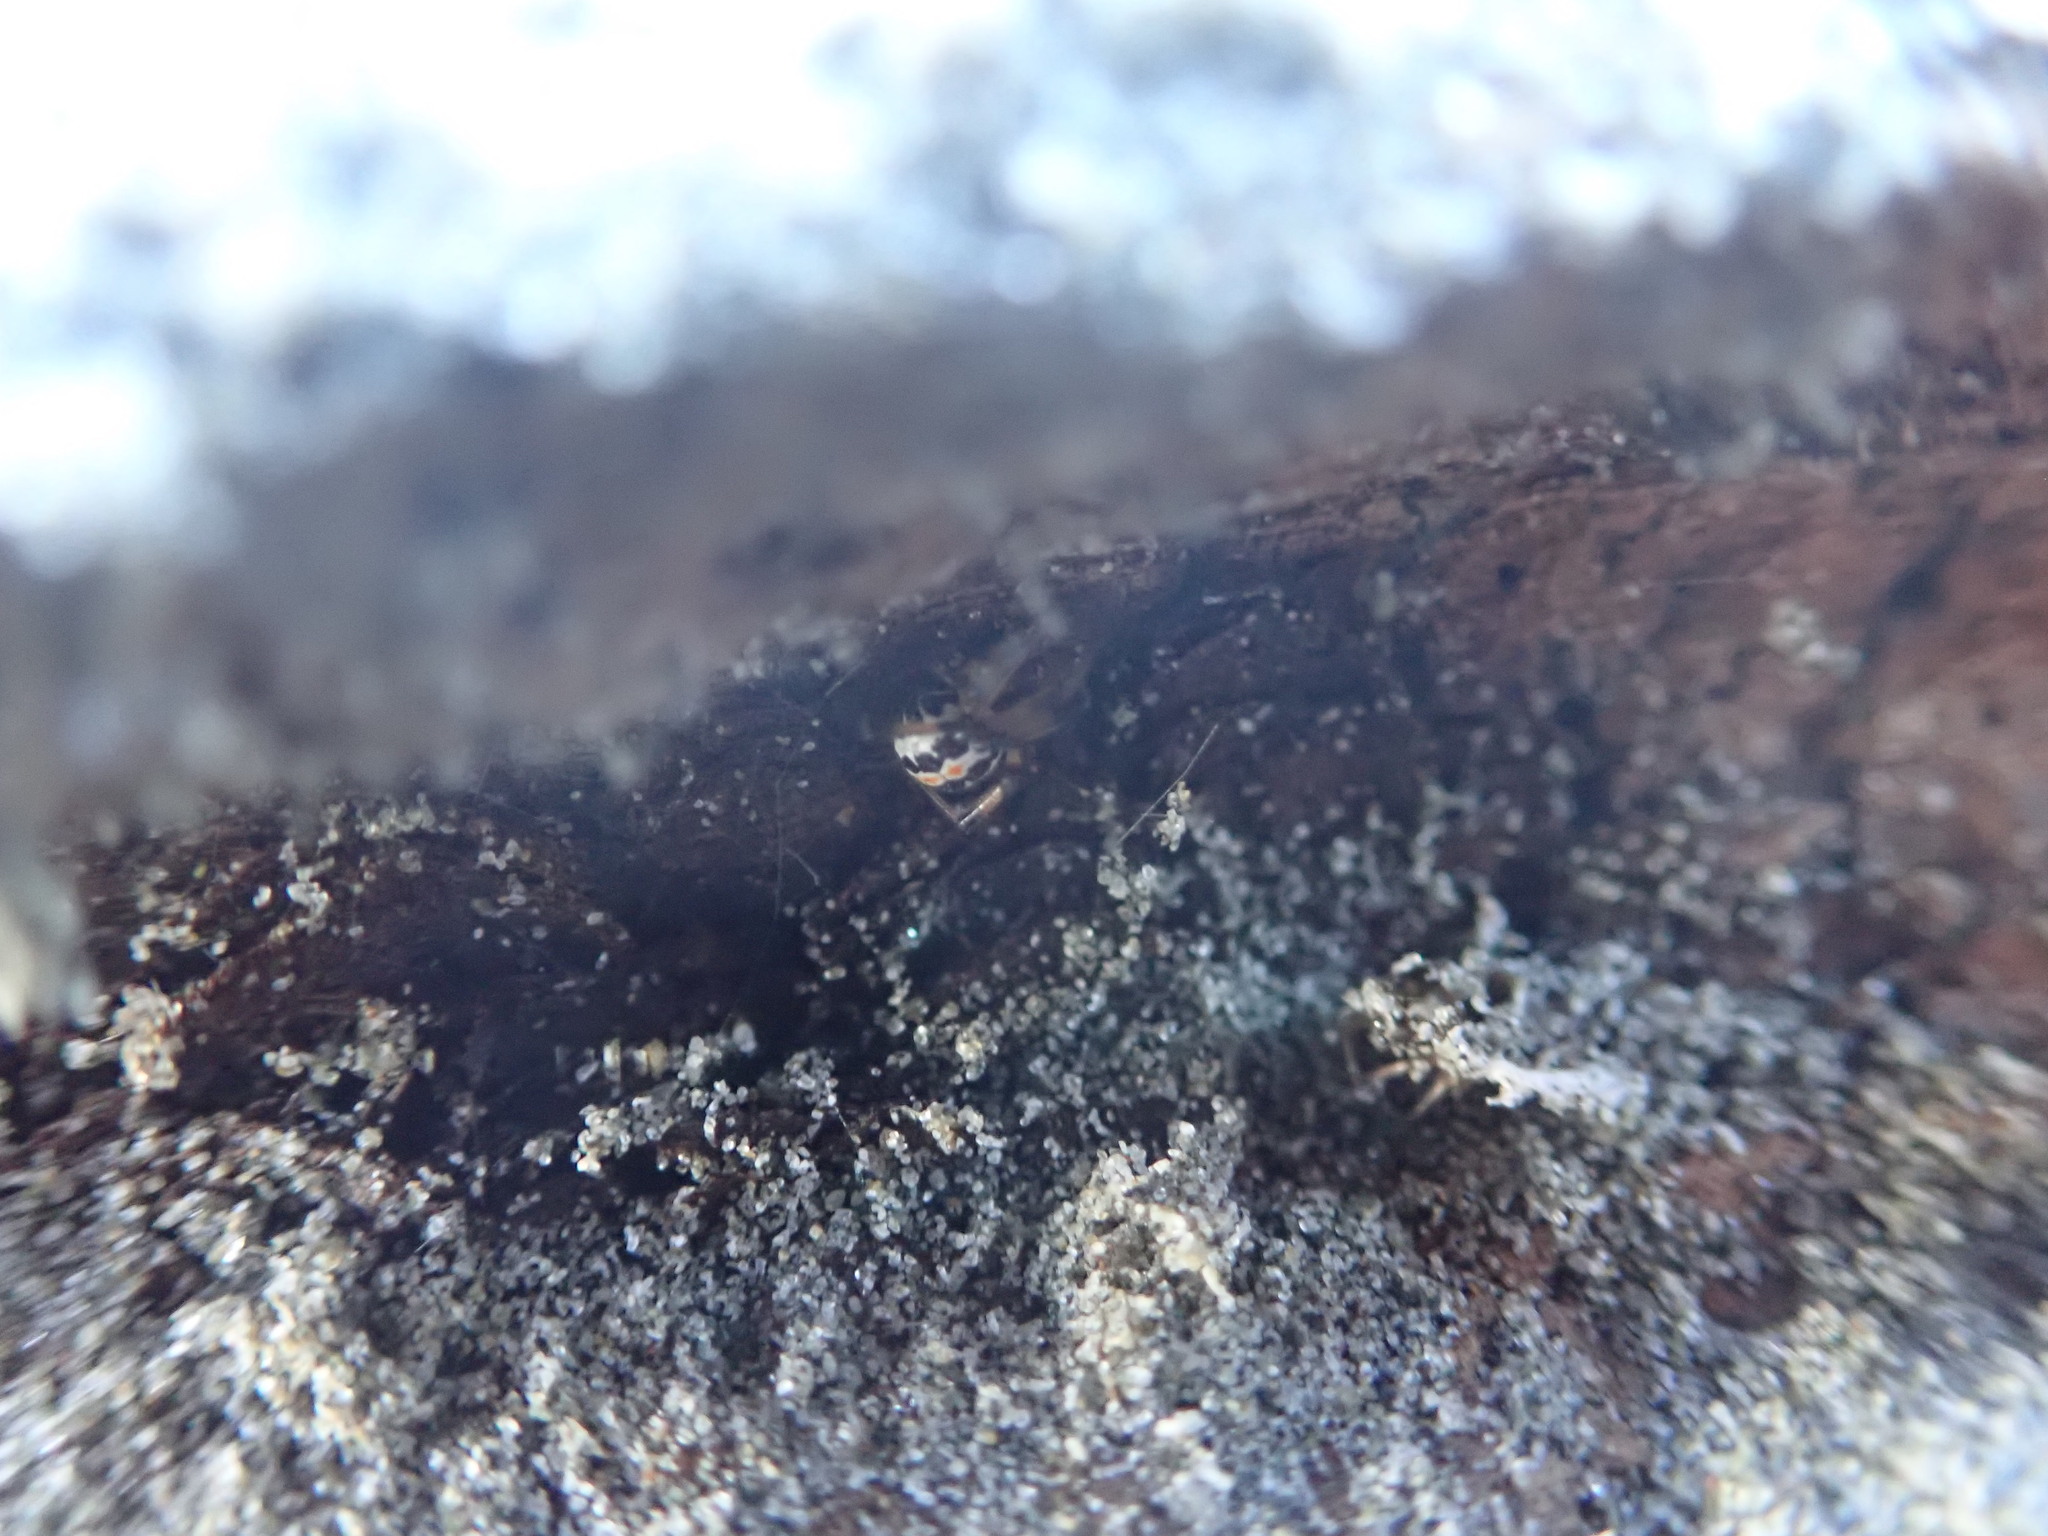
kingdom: Animalia
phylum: Arthropoda
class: Arachnida
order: Araneae
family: Theridiidae
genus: Latrodectus
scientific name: Latrodectus katipo
